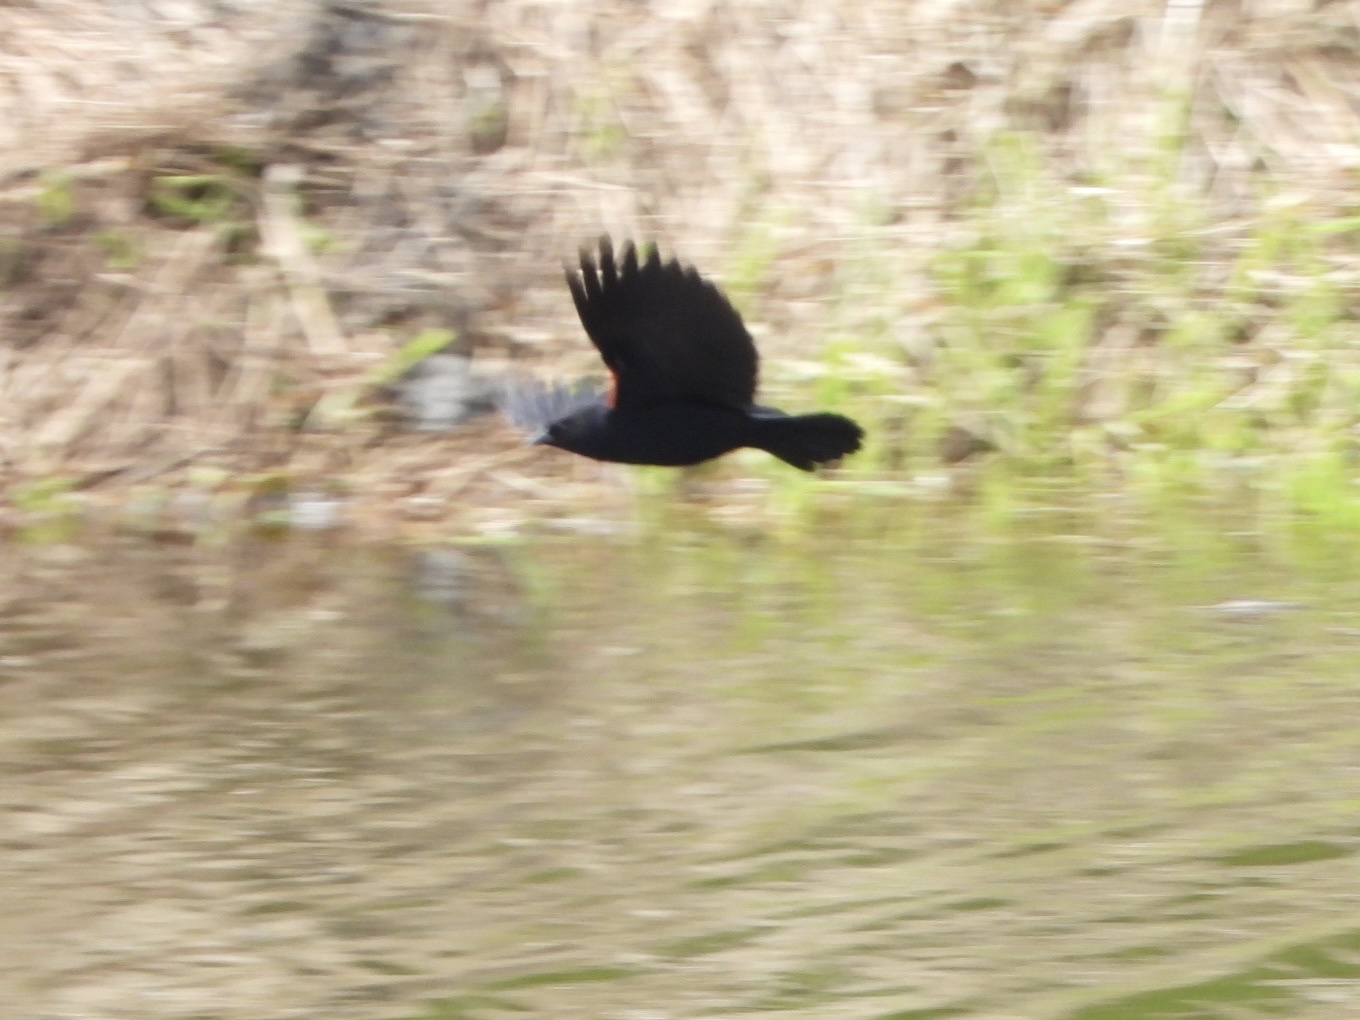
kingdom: Animalia
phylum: Chordata
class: Aves
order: Passeriformes
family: Icteridae
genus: Agelaius
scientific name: Agelaius phoeniceus
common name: Red-winged blackbird
